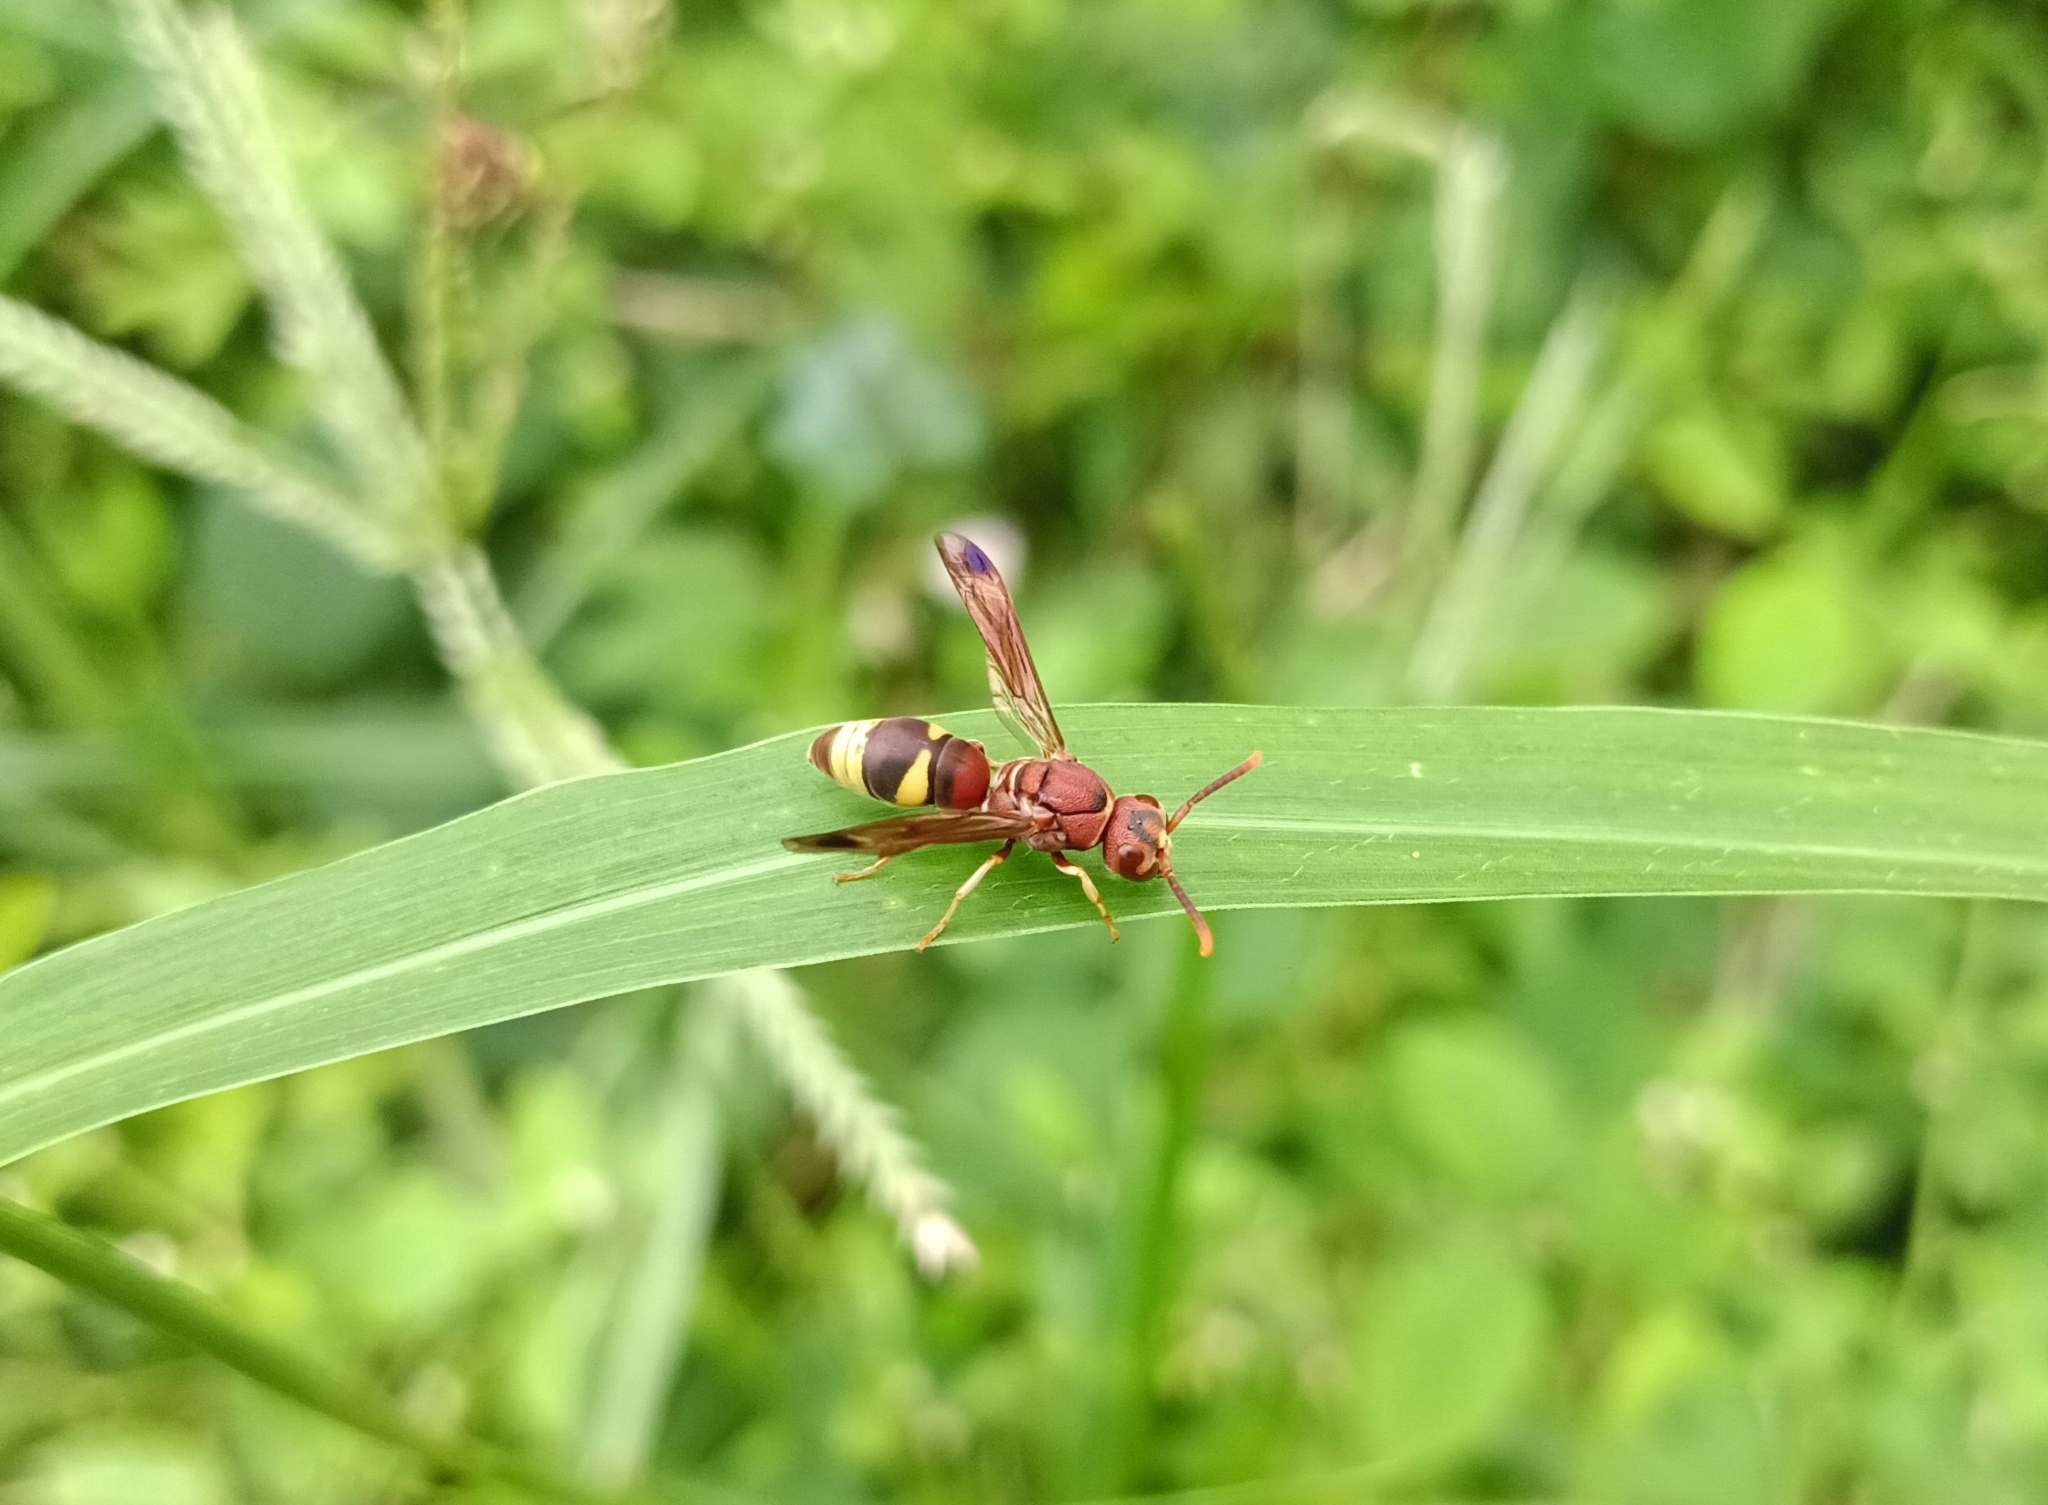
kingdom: Animalia
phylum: Arthropoda
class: Insecta
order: Hymenoptera
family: Eumenidae
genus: Antodynerus
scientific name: Antodynerus punctatipennis
